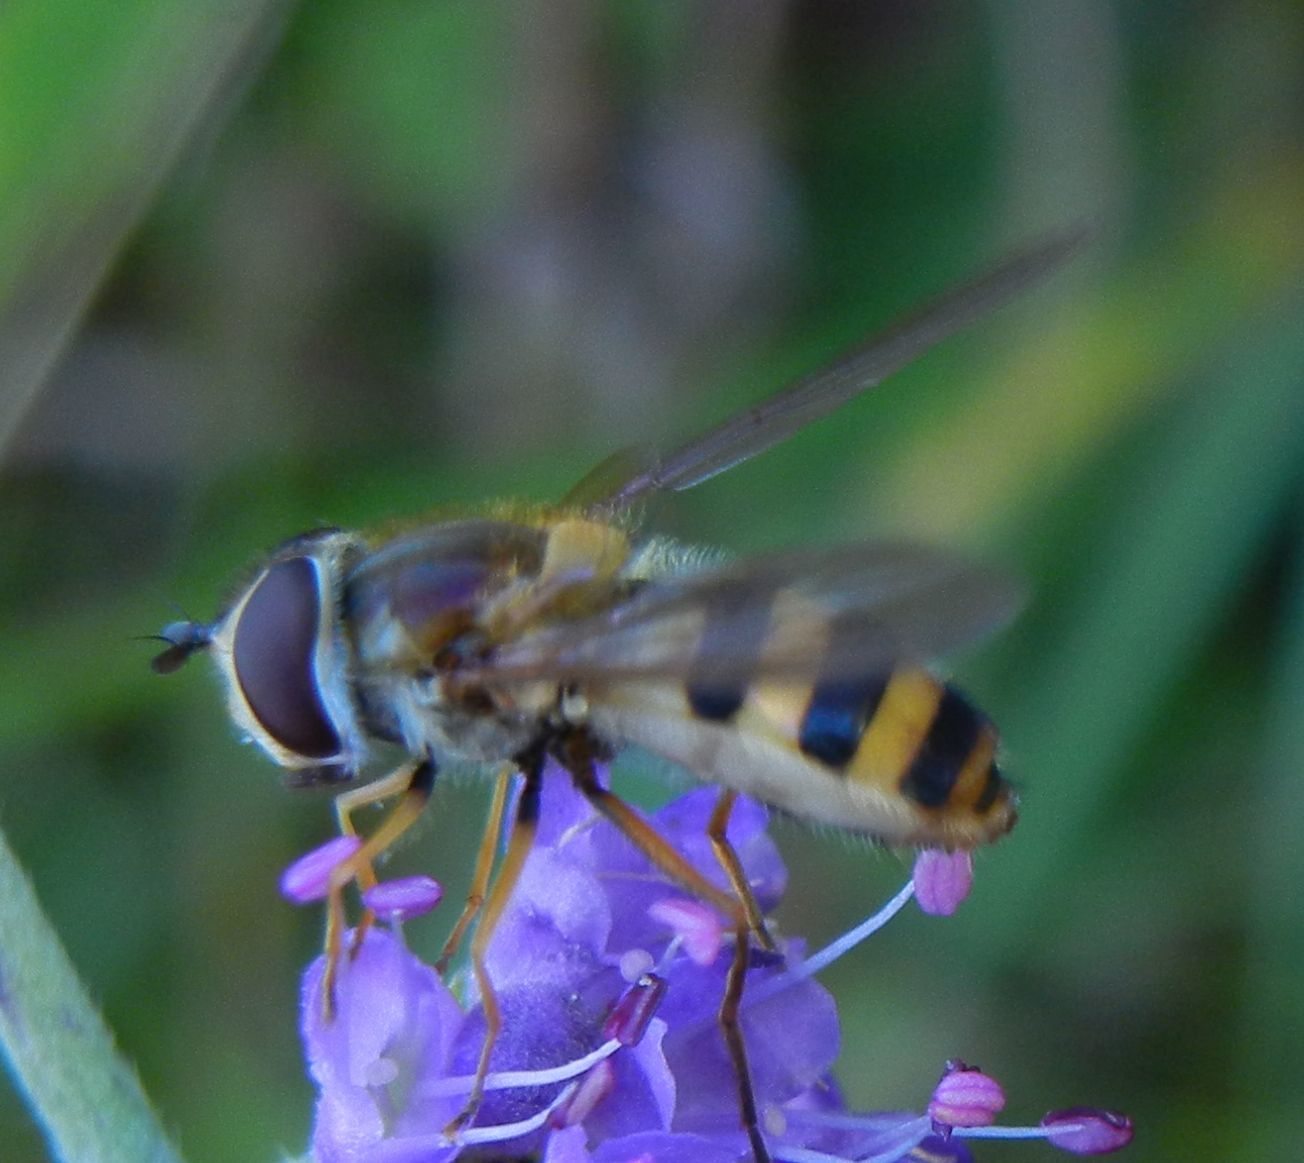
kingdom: Animalia
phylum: Arthropoda
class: Insecta
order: Diptera
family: Syrphidae
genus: Epistrophe
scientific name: Epistrophe grossulariae
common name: Black-horned smoothtail
